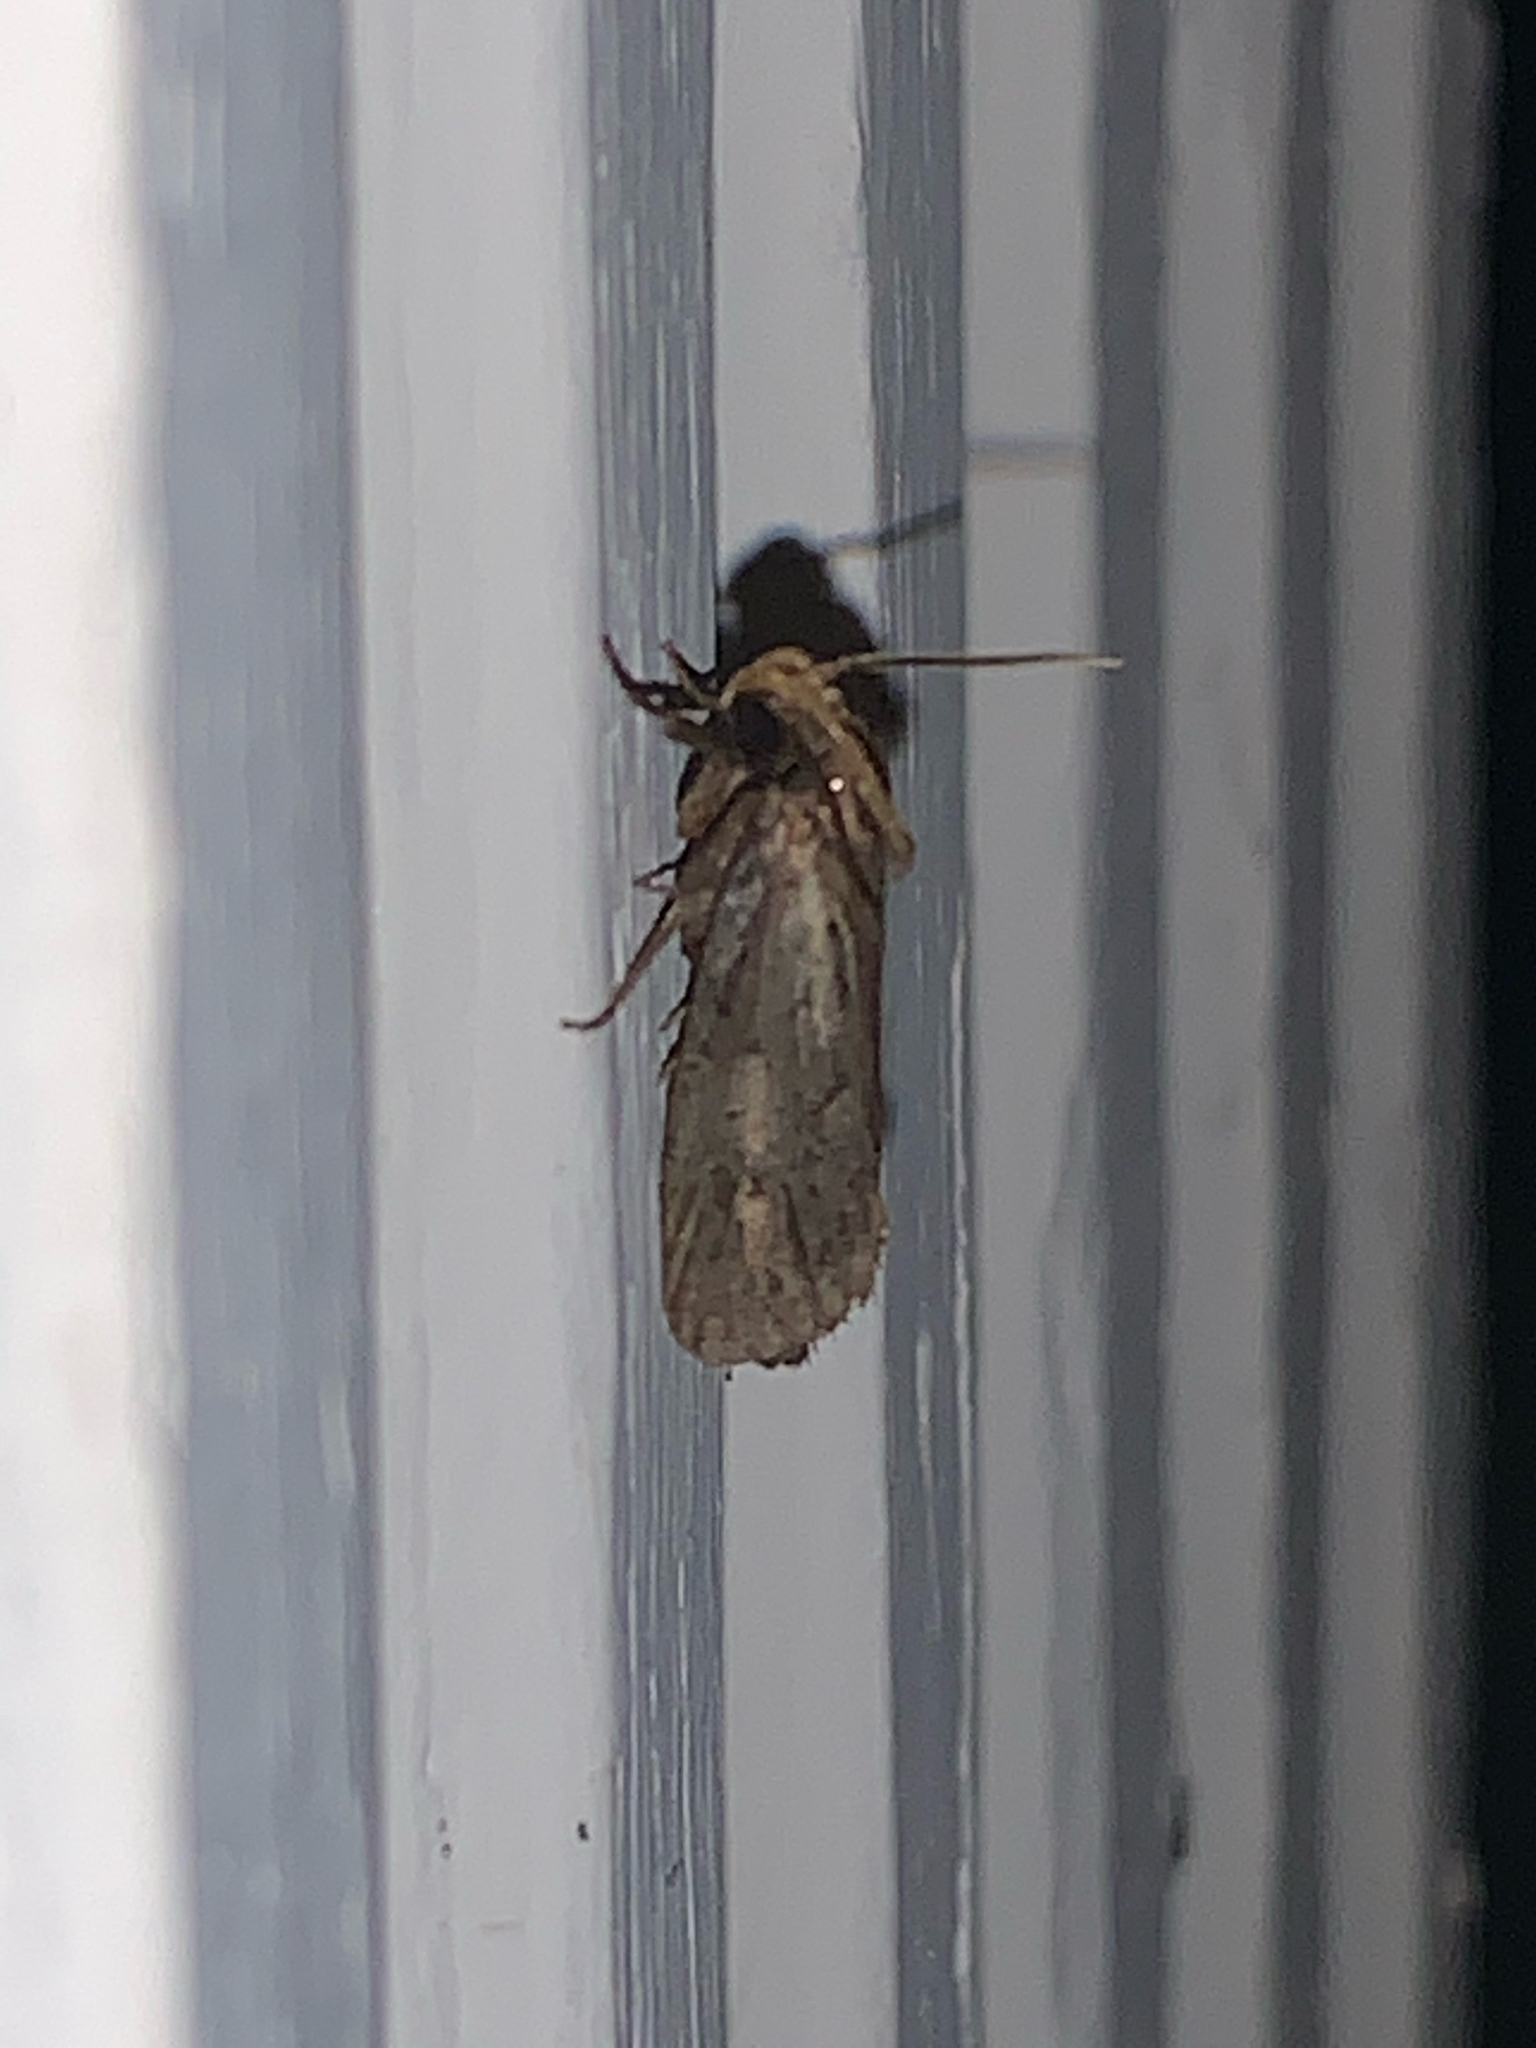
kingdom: Animalia
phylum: Arthropoda
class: Insecta
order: Lepidoptera
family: Tineidae
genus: Acrolophus
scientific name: Acrolophus popeanella
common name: Clemens' grass tubeworm moth
